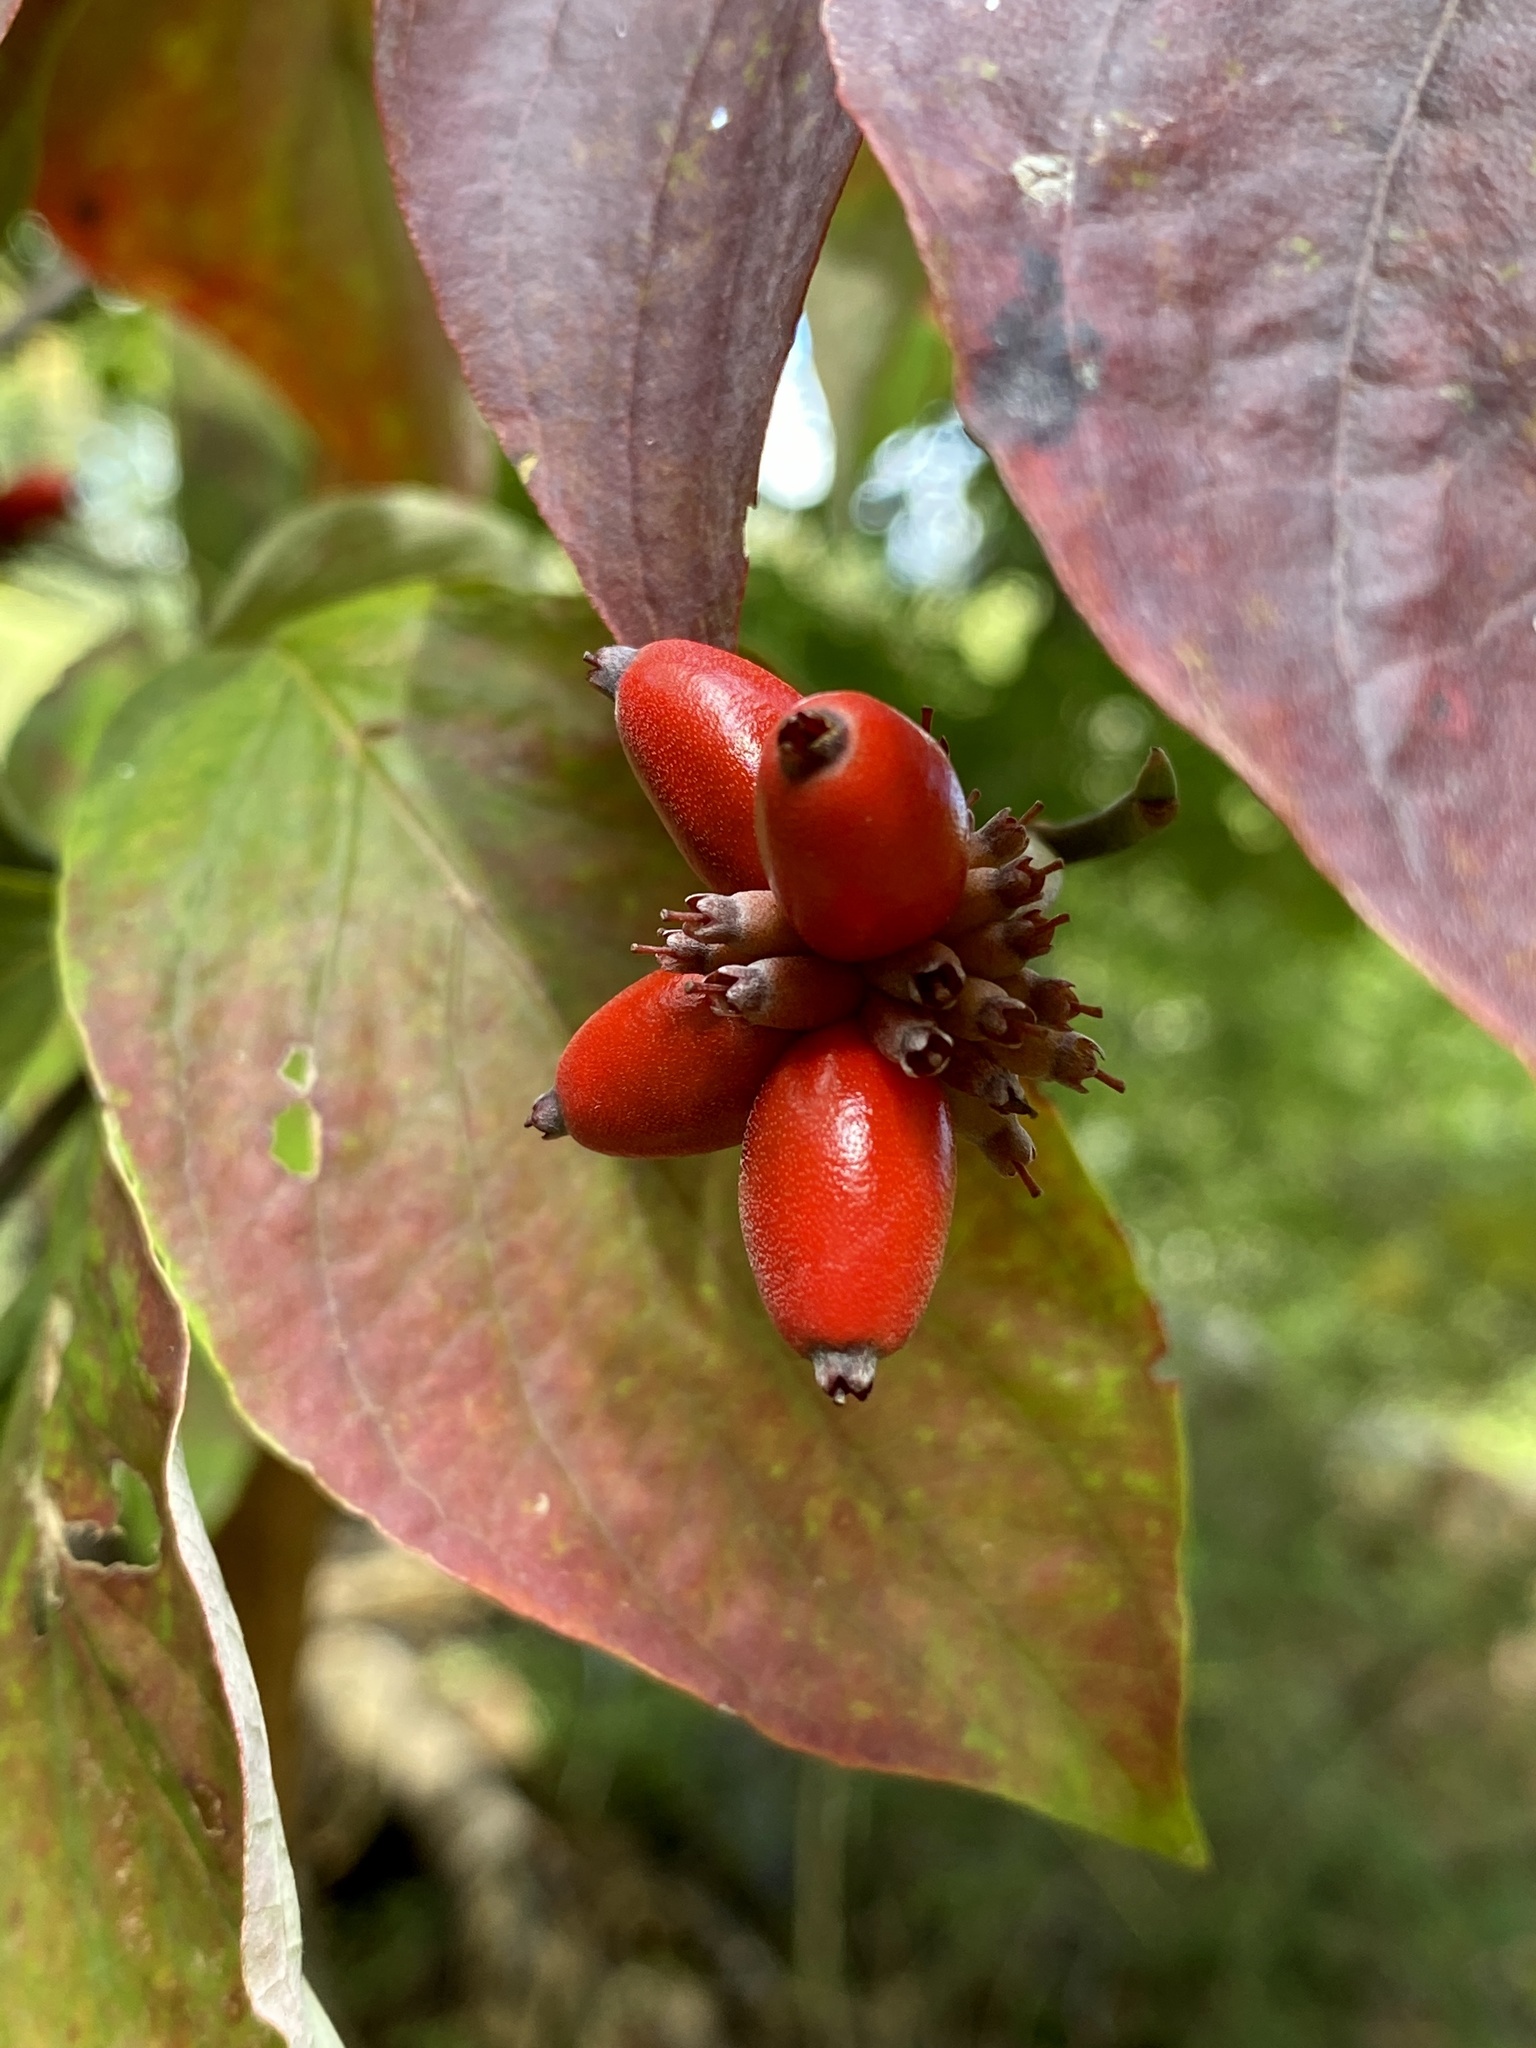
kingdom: Plantae
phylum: Tracheophyta
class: Magnoliopsida
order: Cornales
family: Cornaceae
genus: Cornus
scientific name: Cornus florida
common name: Flowering dogwood
